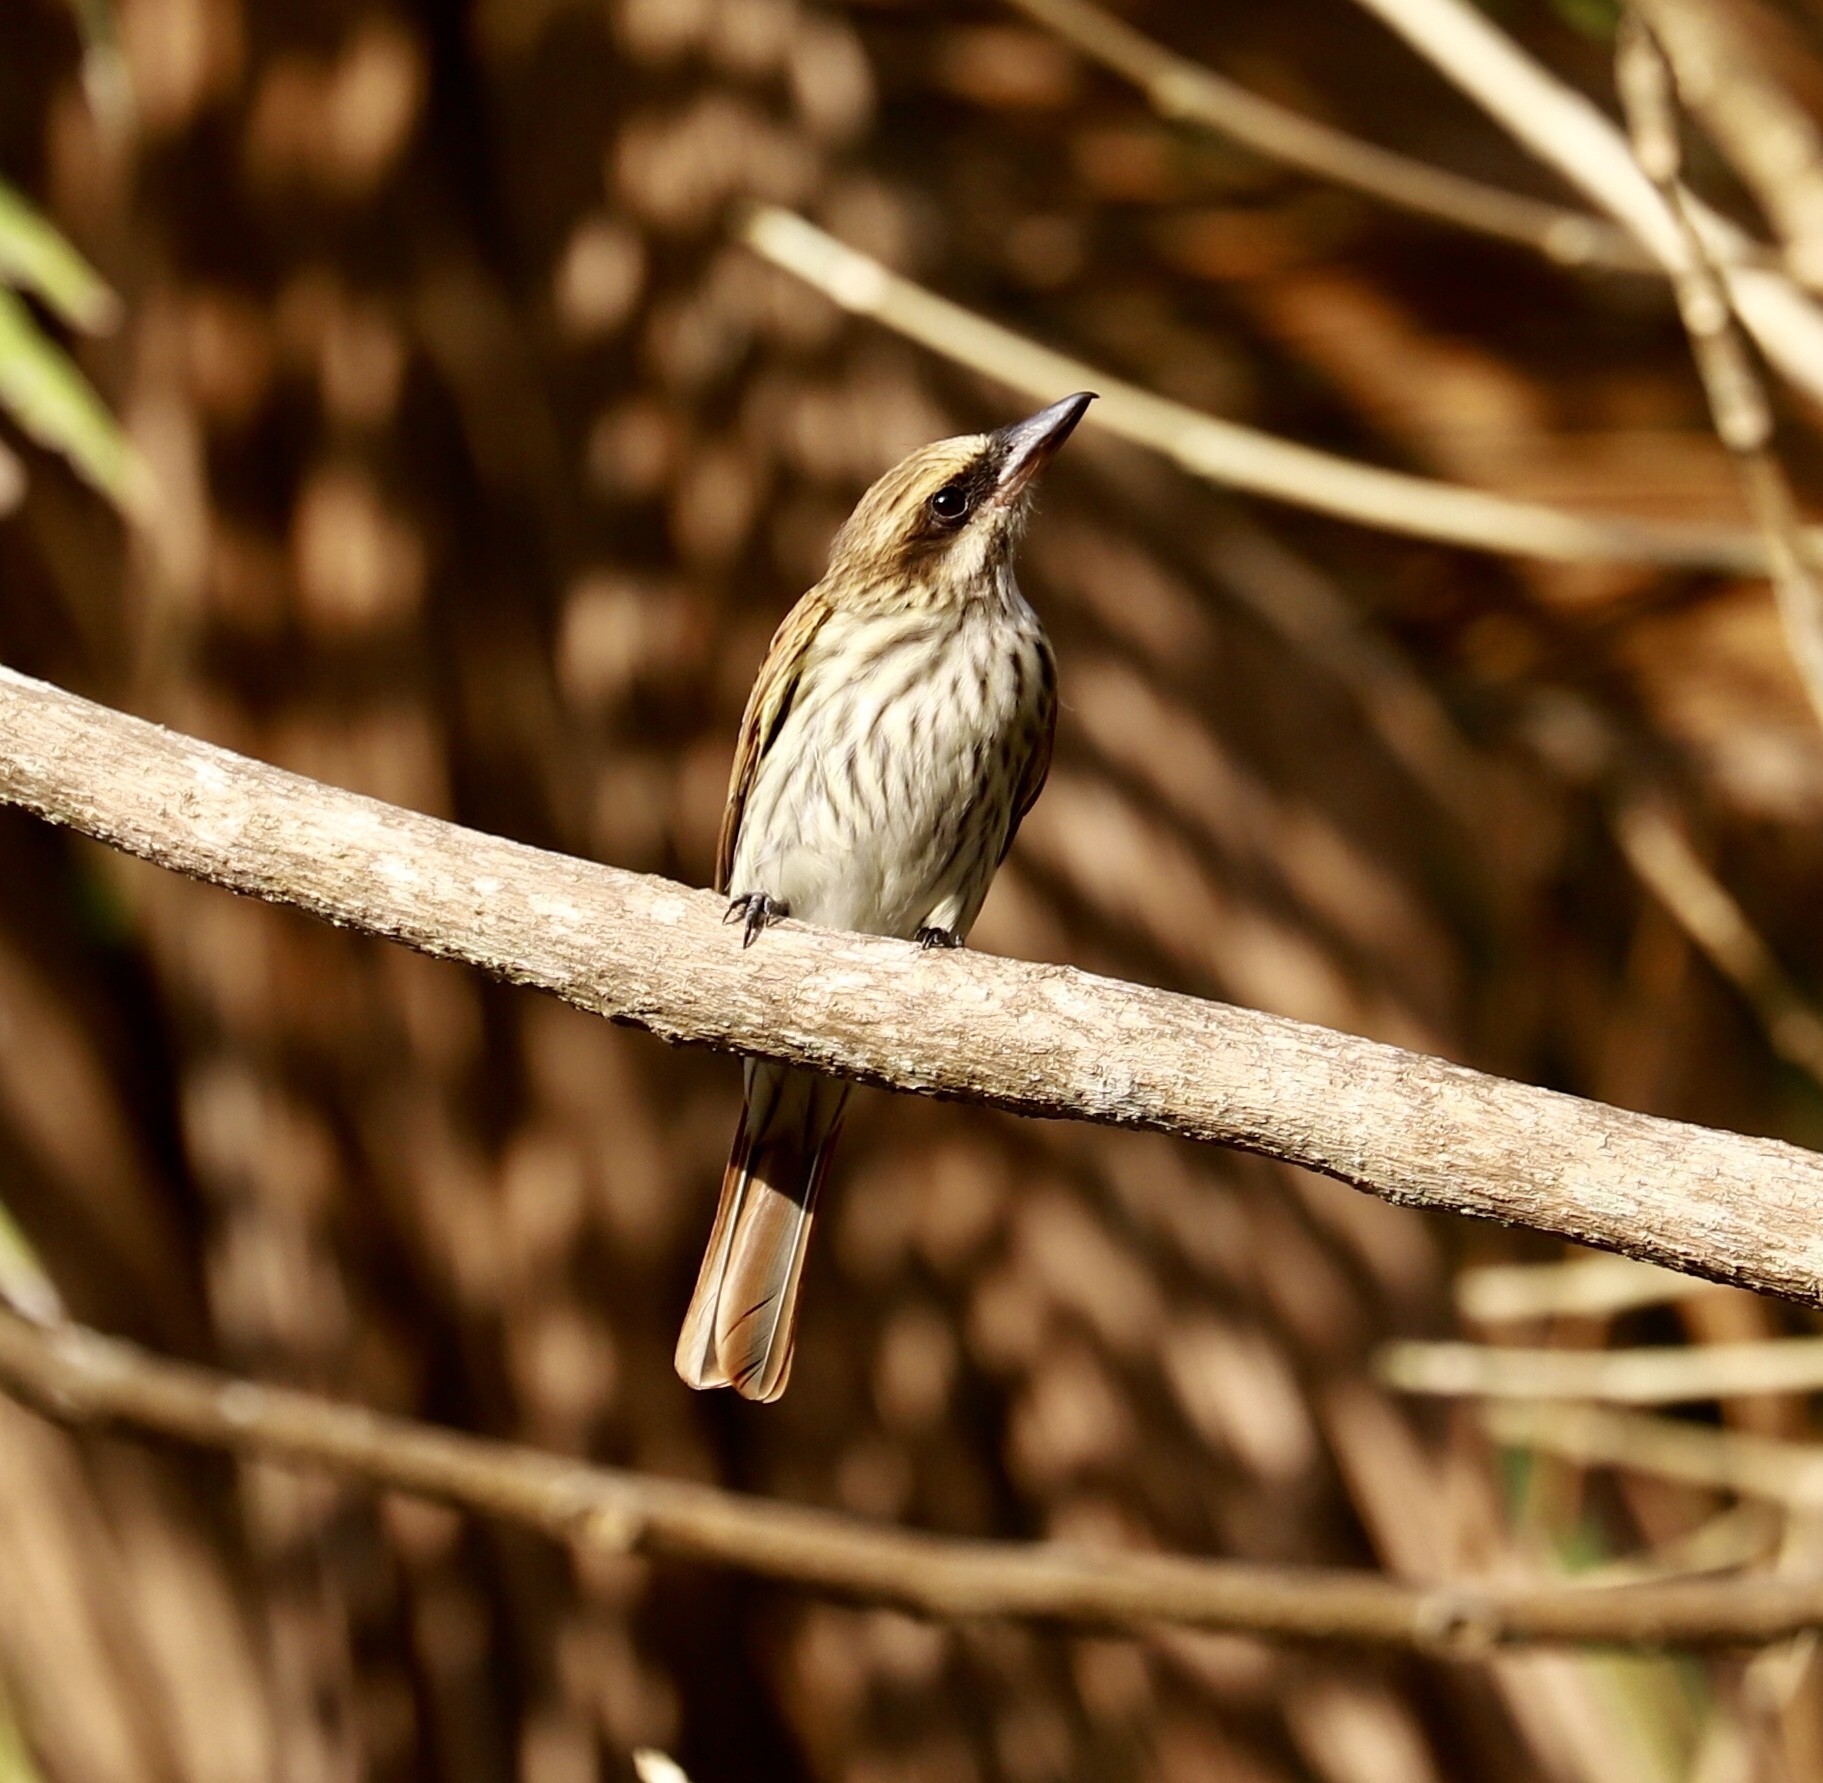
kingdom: Animalia
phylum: Chordata
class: Aves
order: Passeriformes
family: Tyrannidae
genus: Myiodynastes
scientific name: Myiodynastes maculatus
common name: Streaked flycatcher
